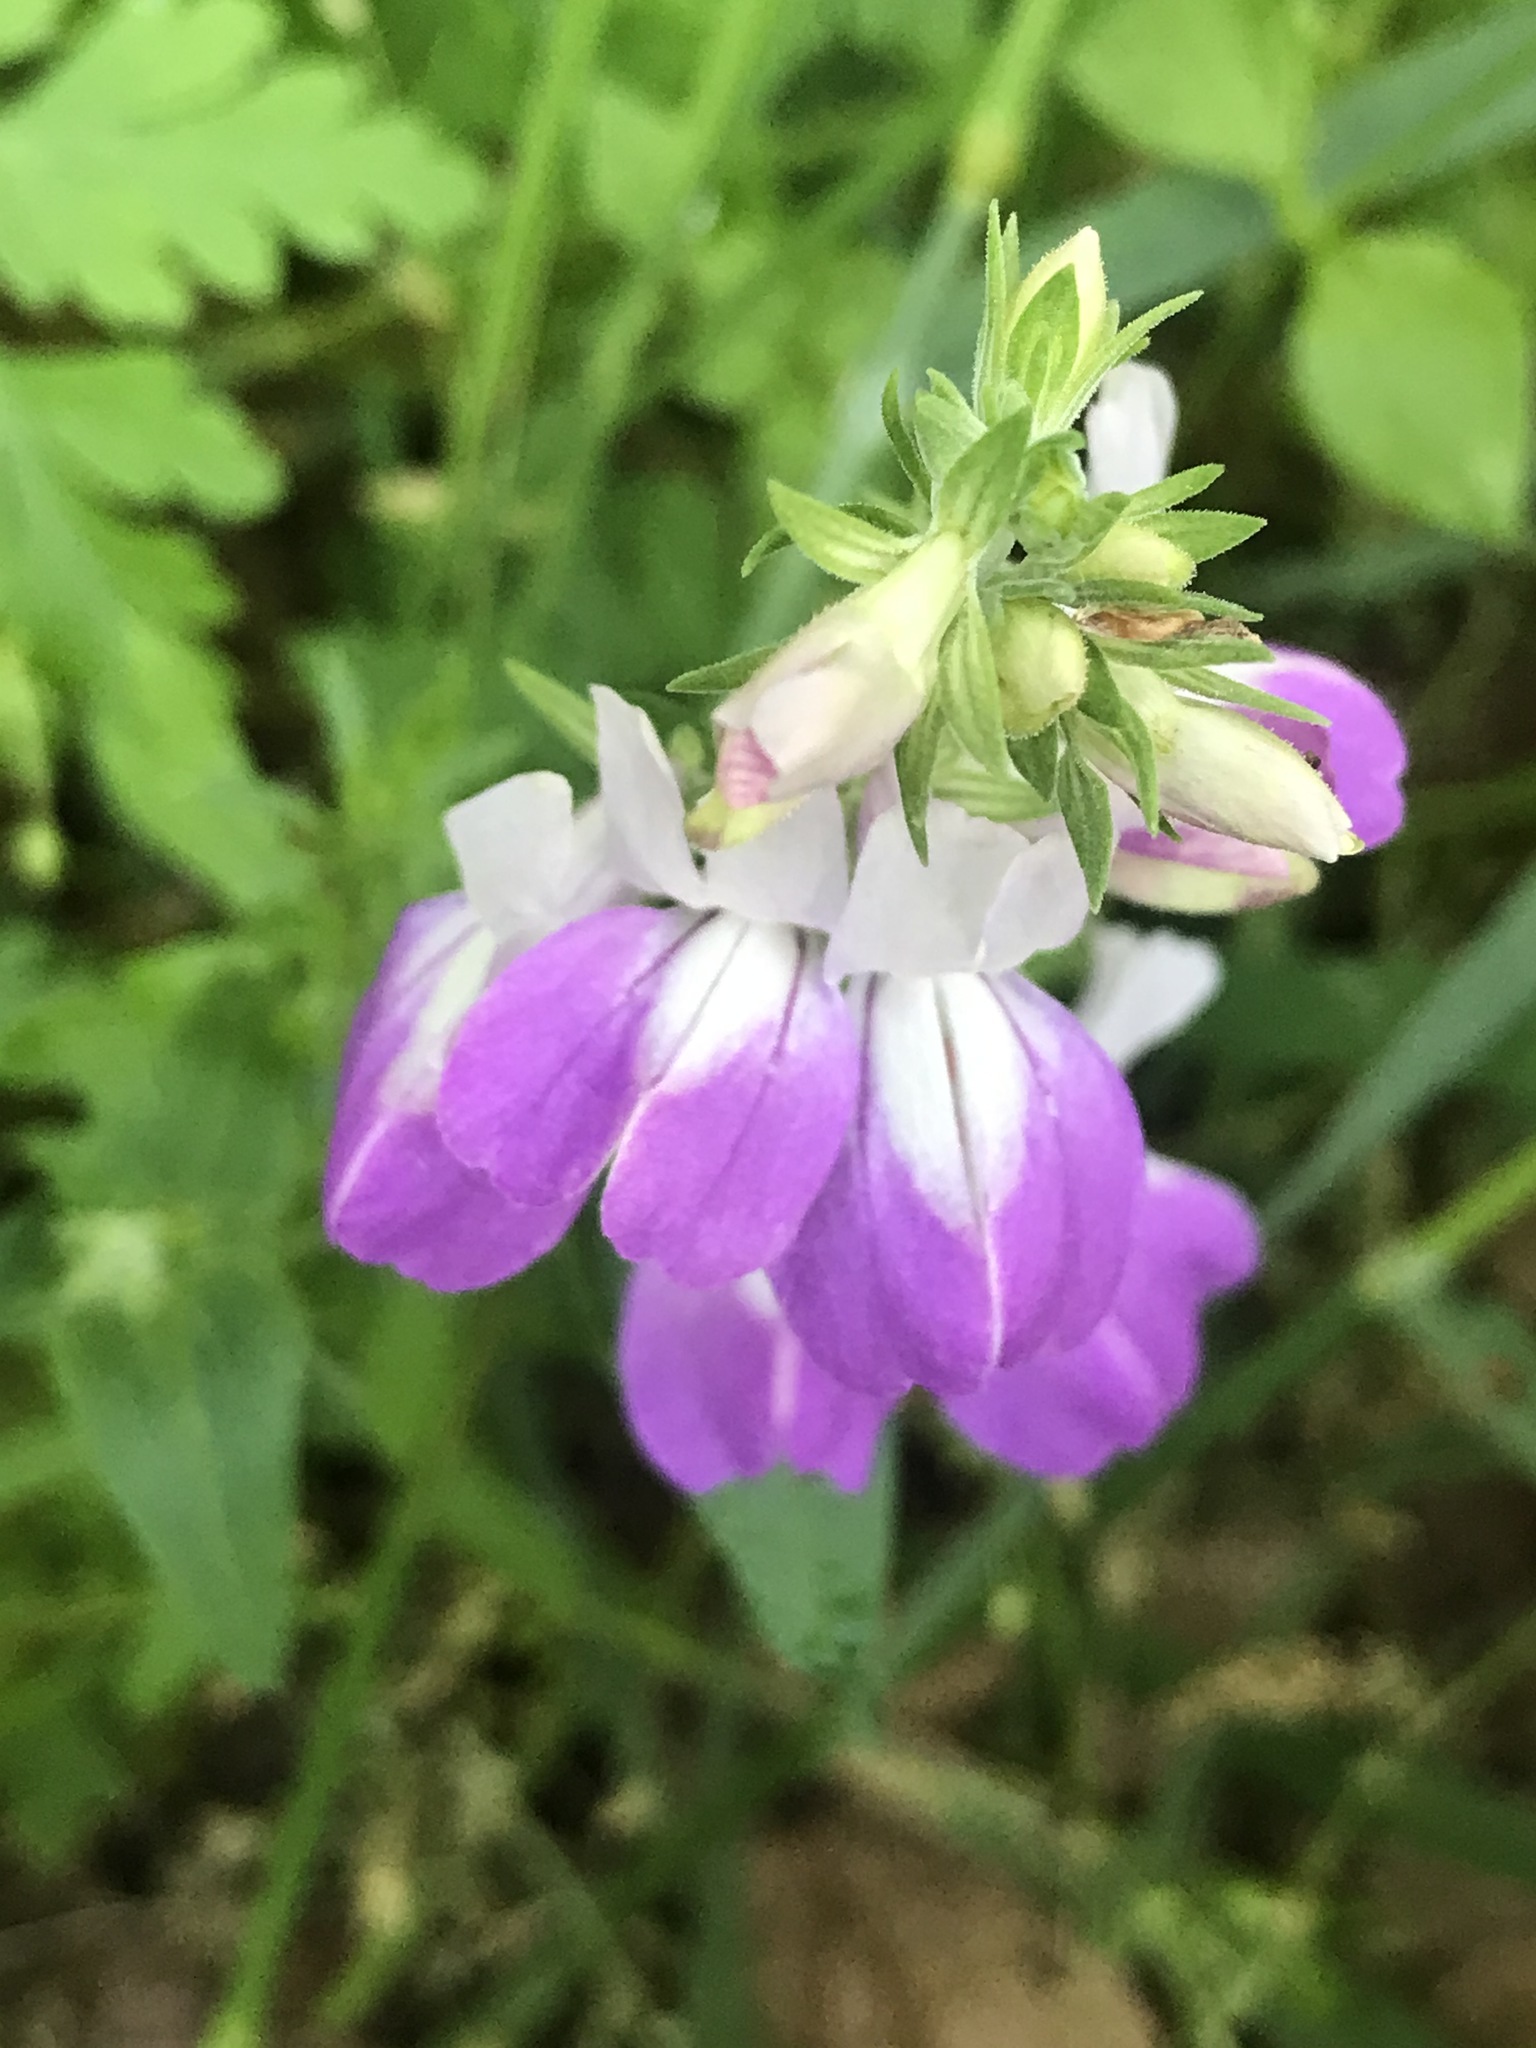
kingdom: Plantae
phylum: Tracheophyta
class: Magnoliopsida
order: Lamiales
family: Plantaginaceae
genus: Collinsia
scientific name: Collinsia heterophylla
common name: Chinese-houses
